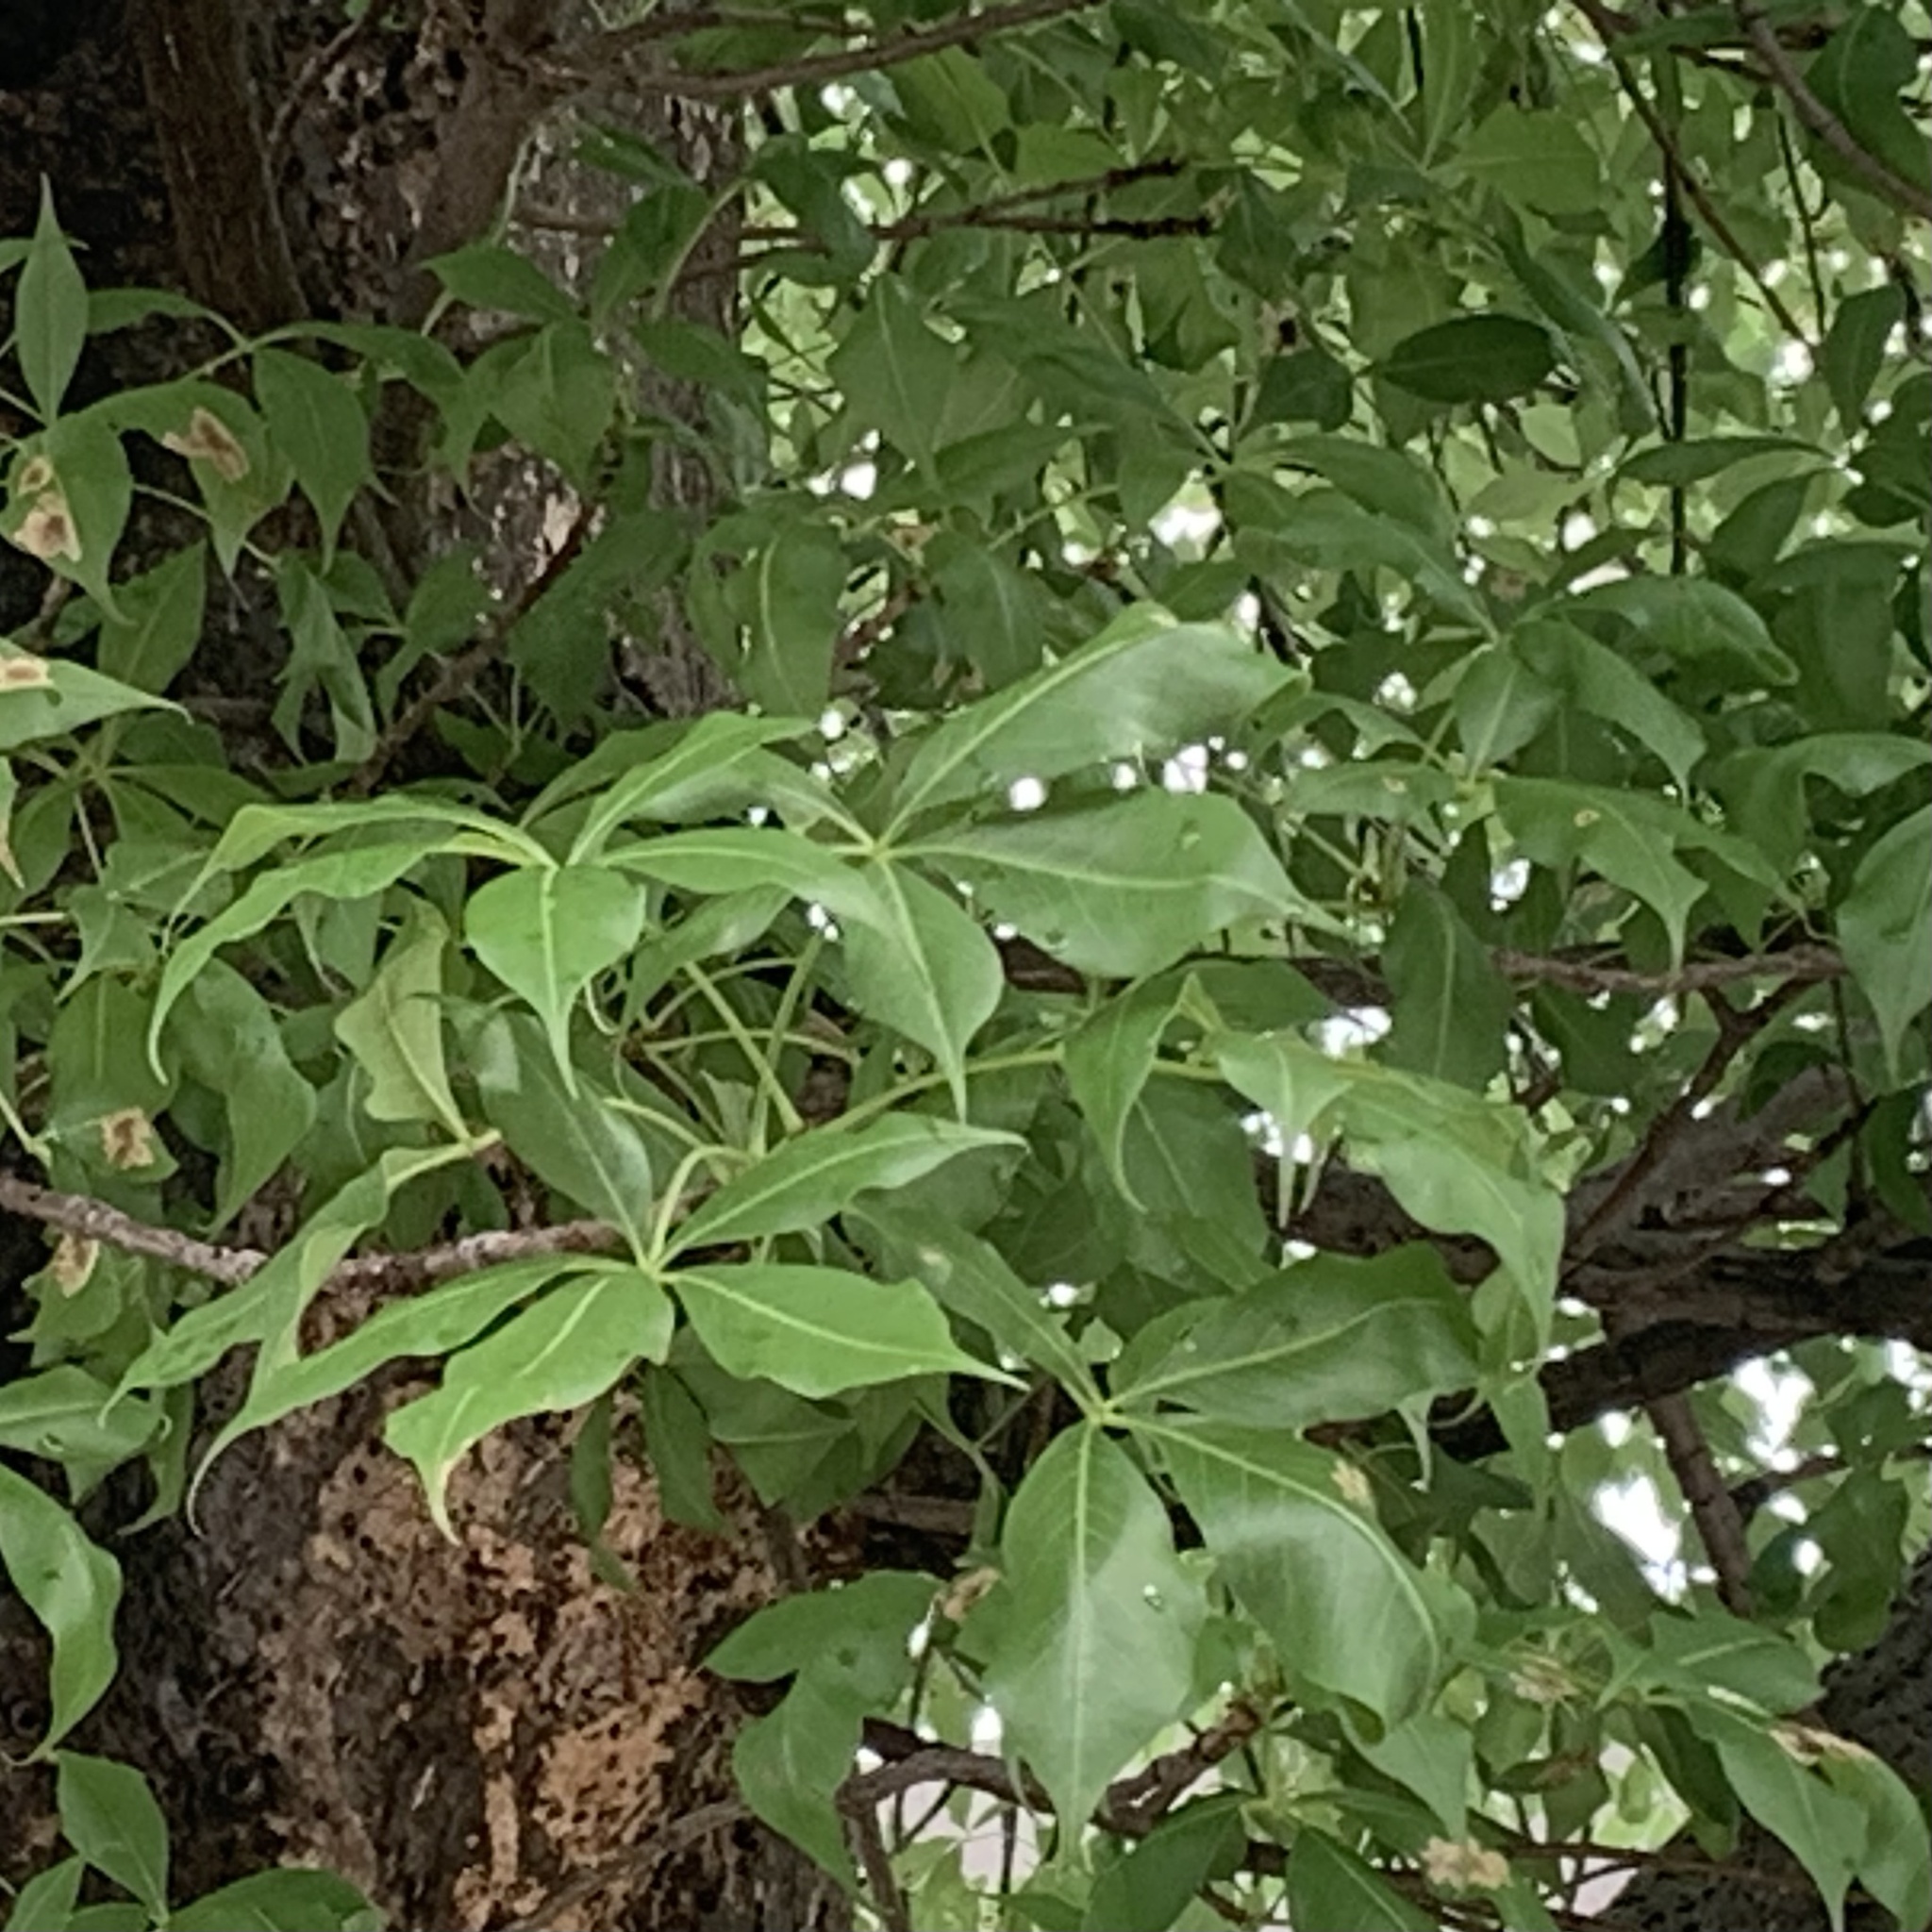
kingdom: Plantae
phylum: Tracheophyta
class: Magnoliopsida
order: Malvales
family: Malvaceae
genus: Adansonia
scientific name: Adansonia digitata
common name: Dead-rat-tree
